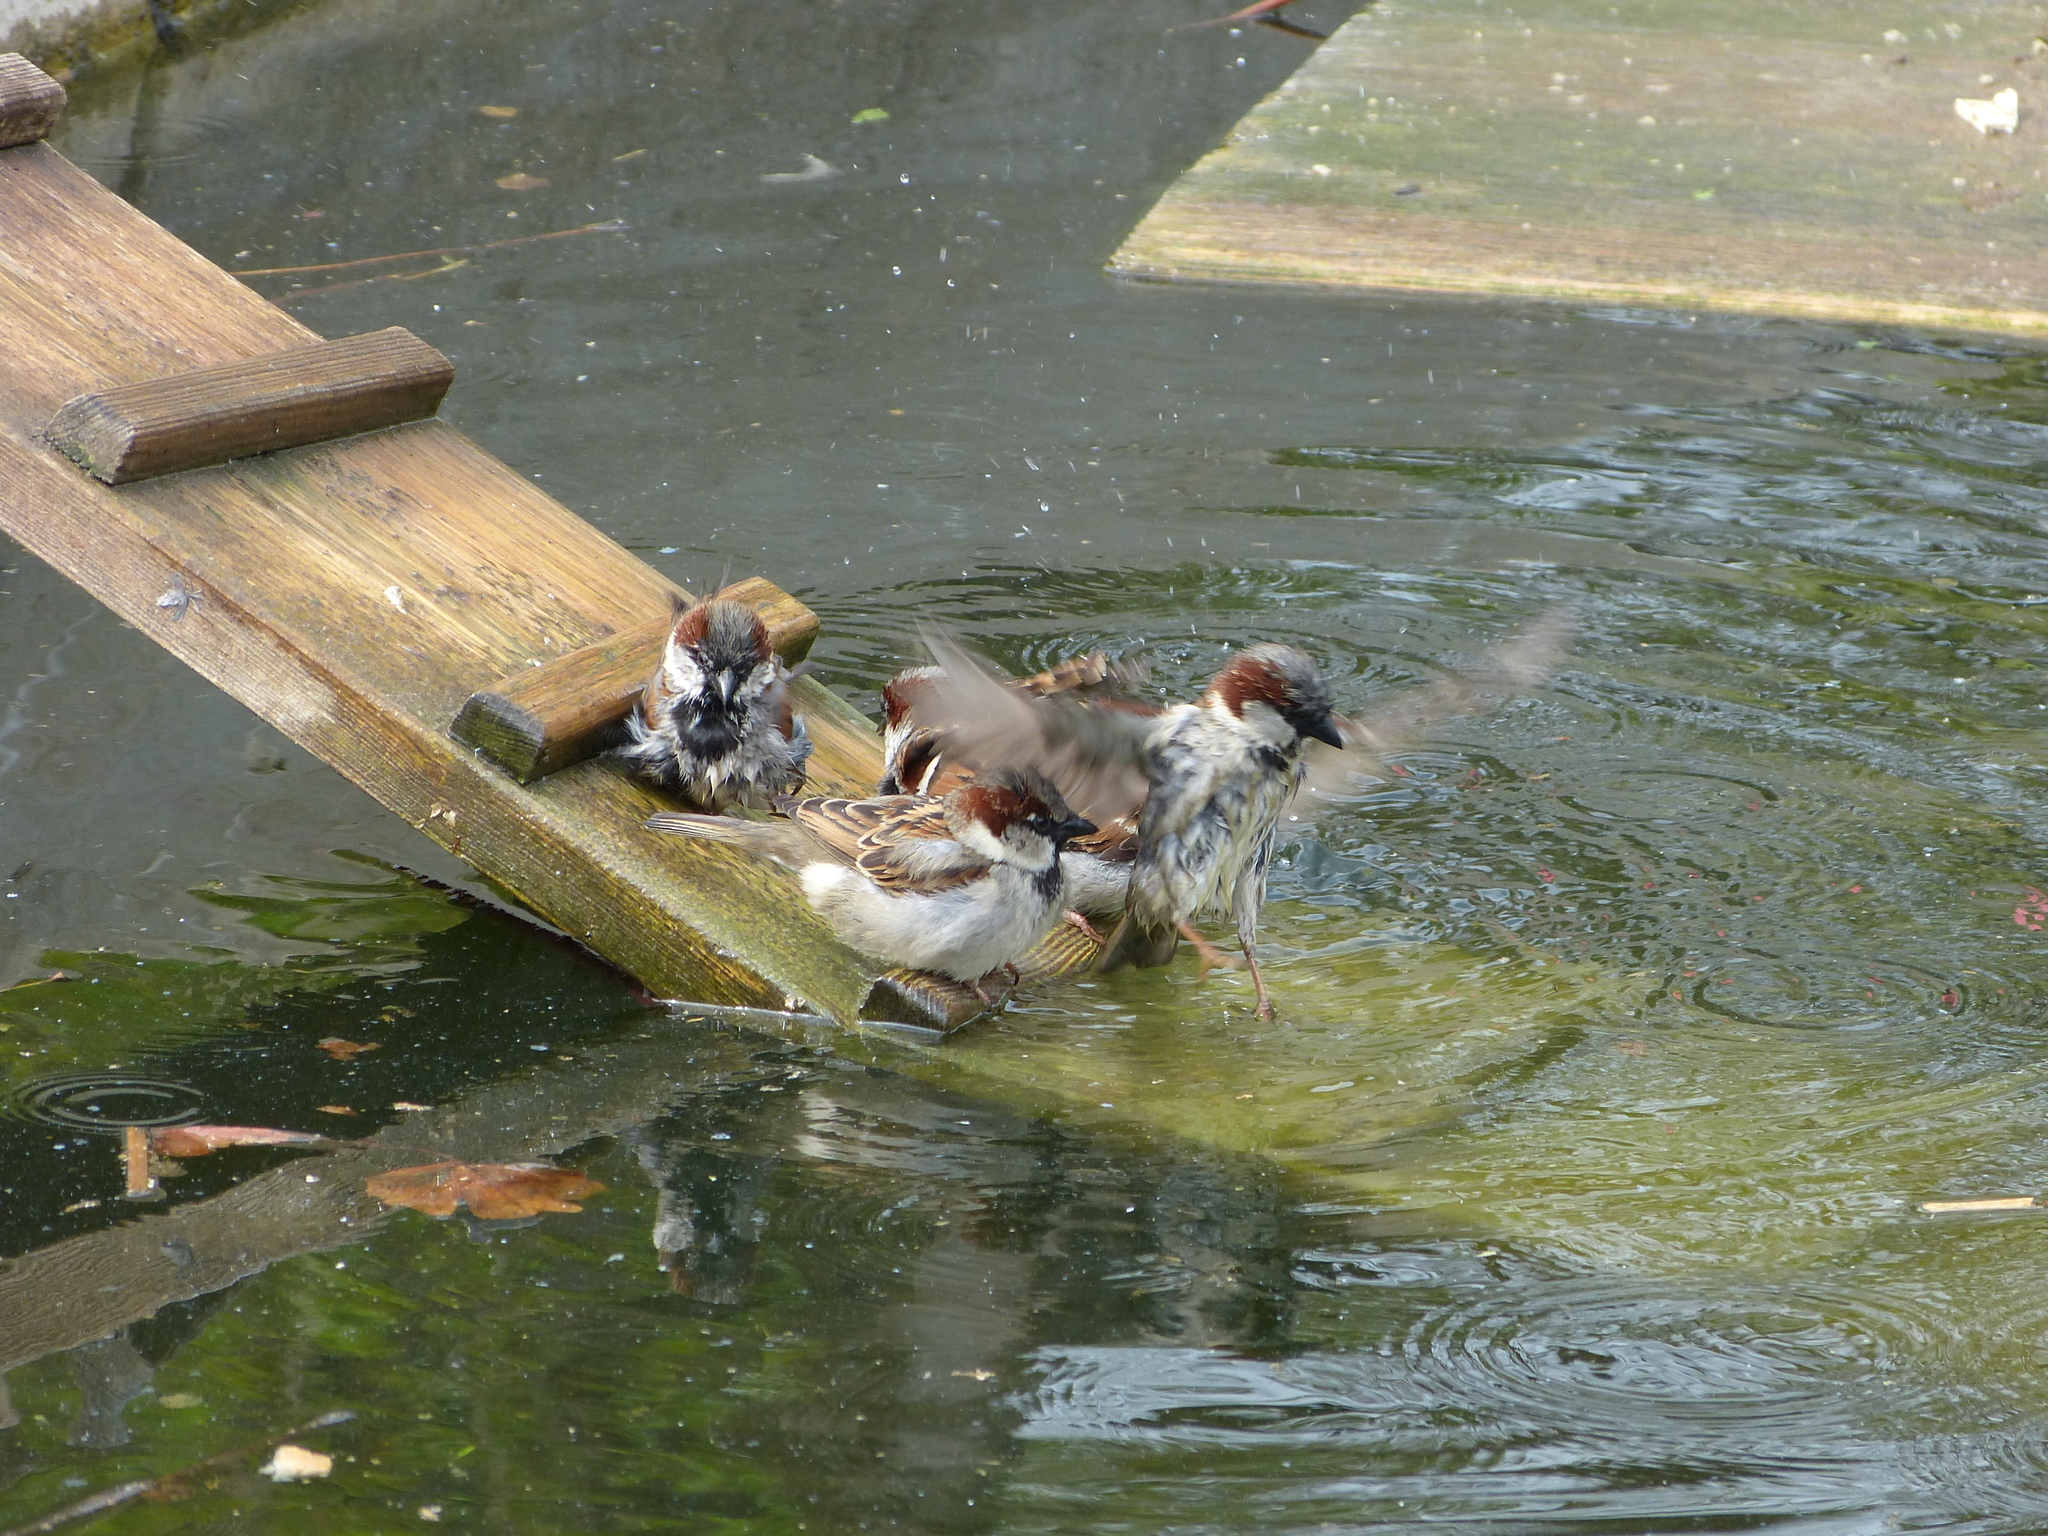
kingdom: Animalia
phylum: Chordata
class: Aves
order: Passeriformes
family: Passeridae
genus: Passer
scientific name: Passer domesticus
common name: House sparrow
